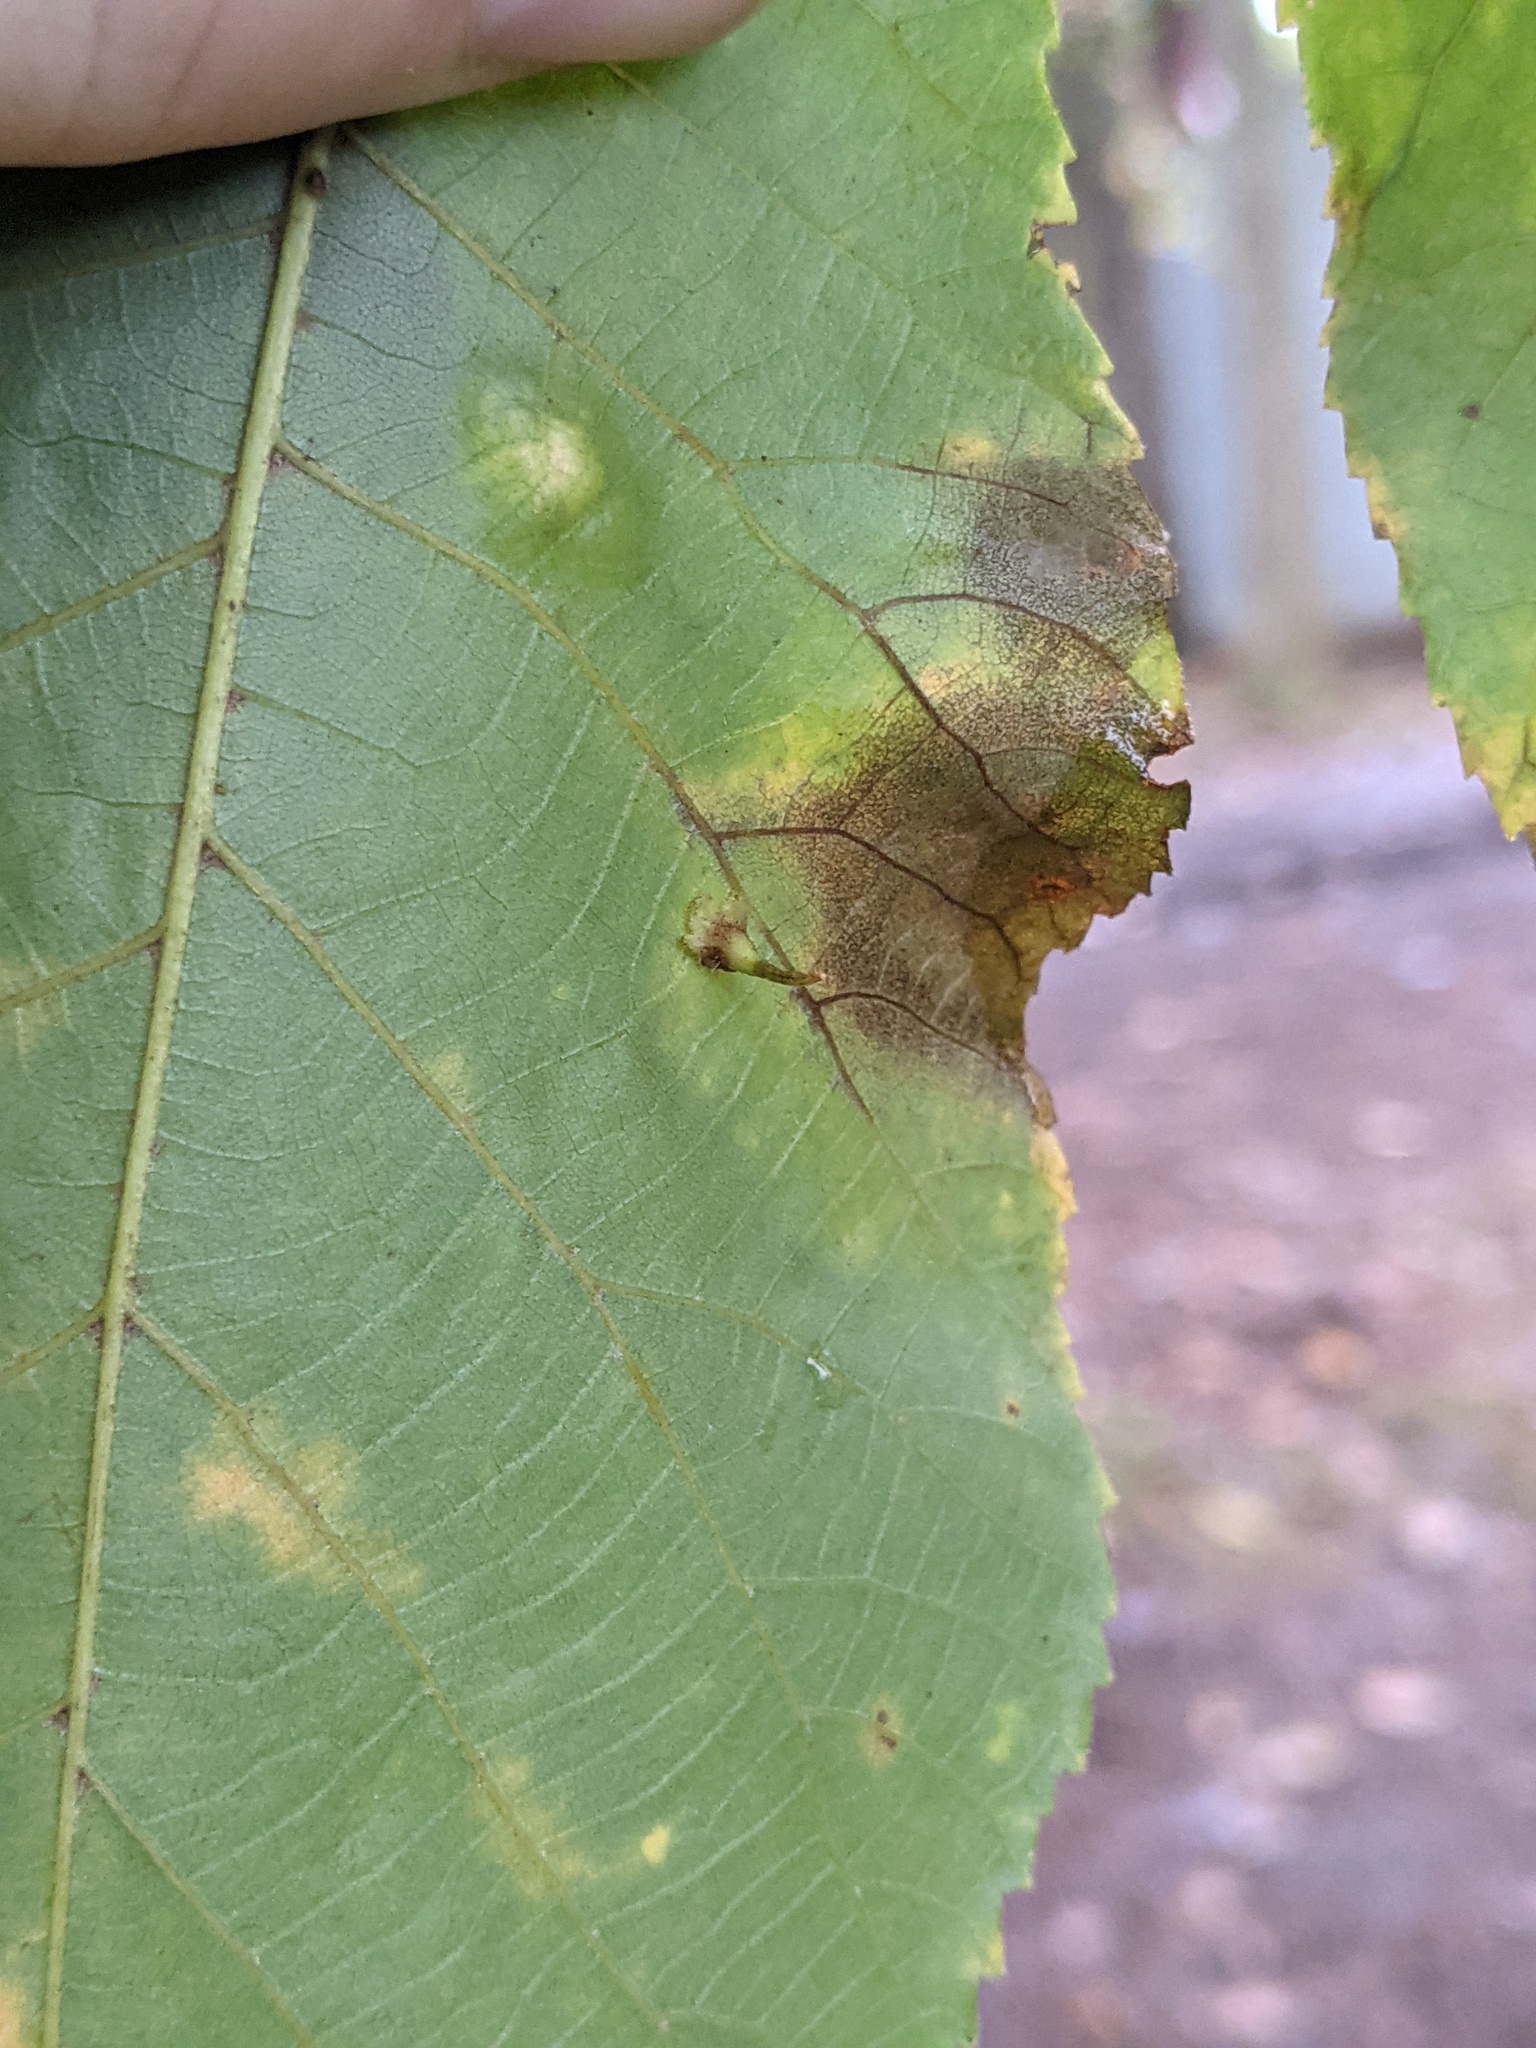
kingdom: Animalia
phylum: Arthropoda
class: Insecta
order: Diptera
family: Cecidomyiidae
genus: Caryomyia
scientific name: Caryomyia inclinata
